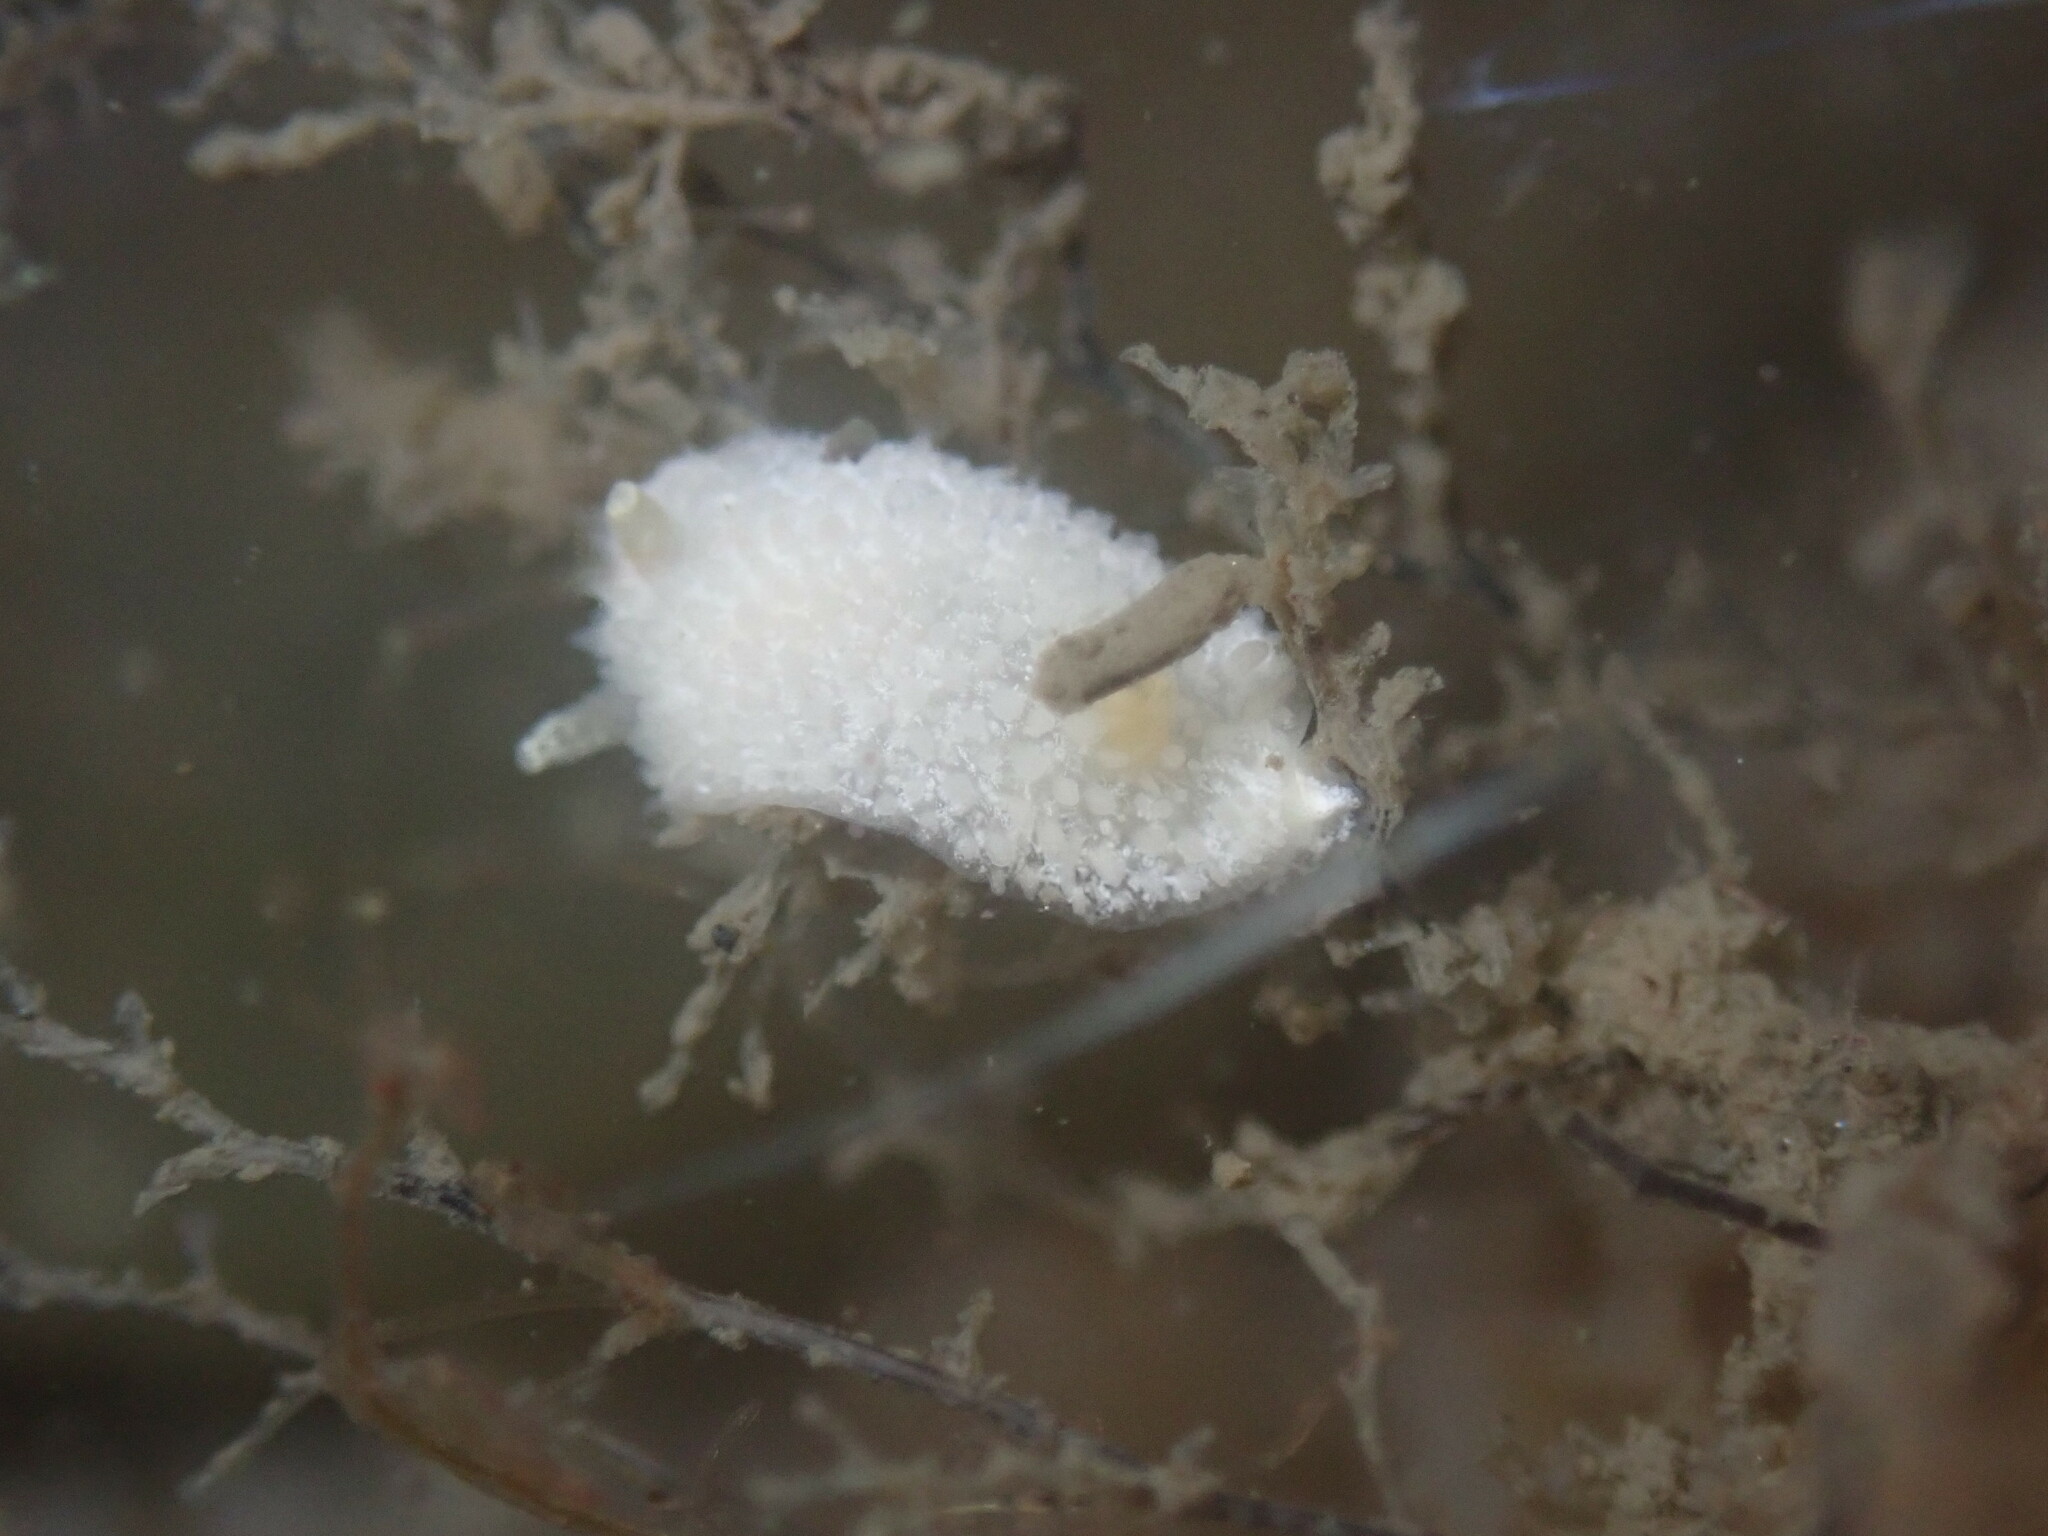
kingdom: Animalia
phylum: Mollusca
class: Gastropoda
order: Nudibranchia
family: Calycidorididae
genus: Diaphorodoris
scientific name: Diaphorodoris lirulatocauda
